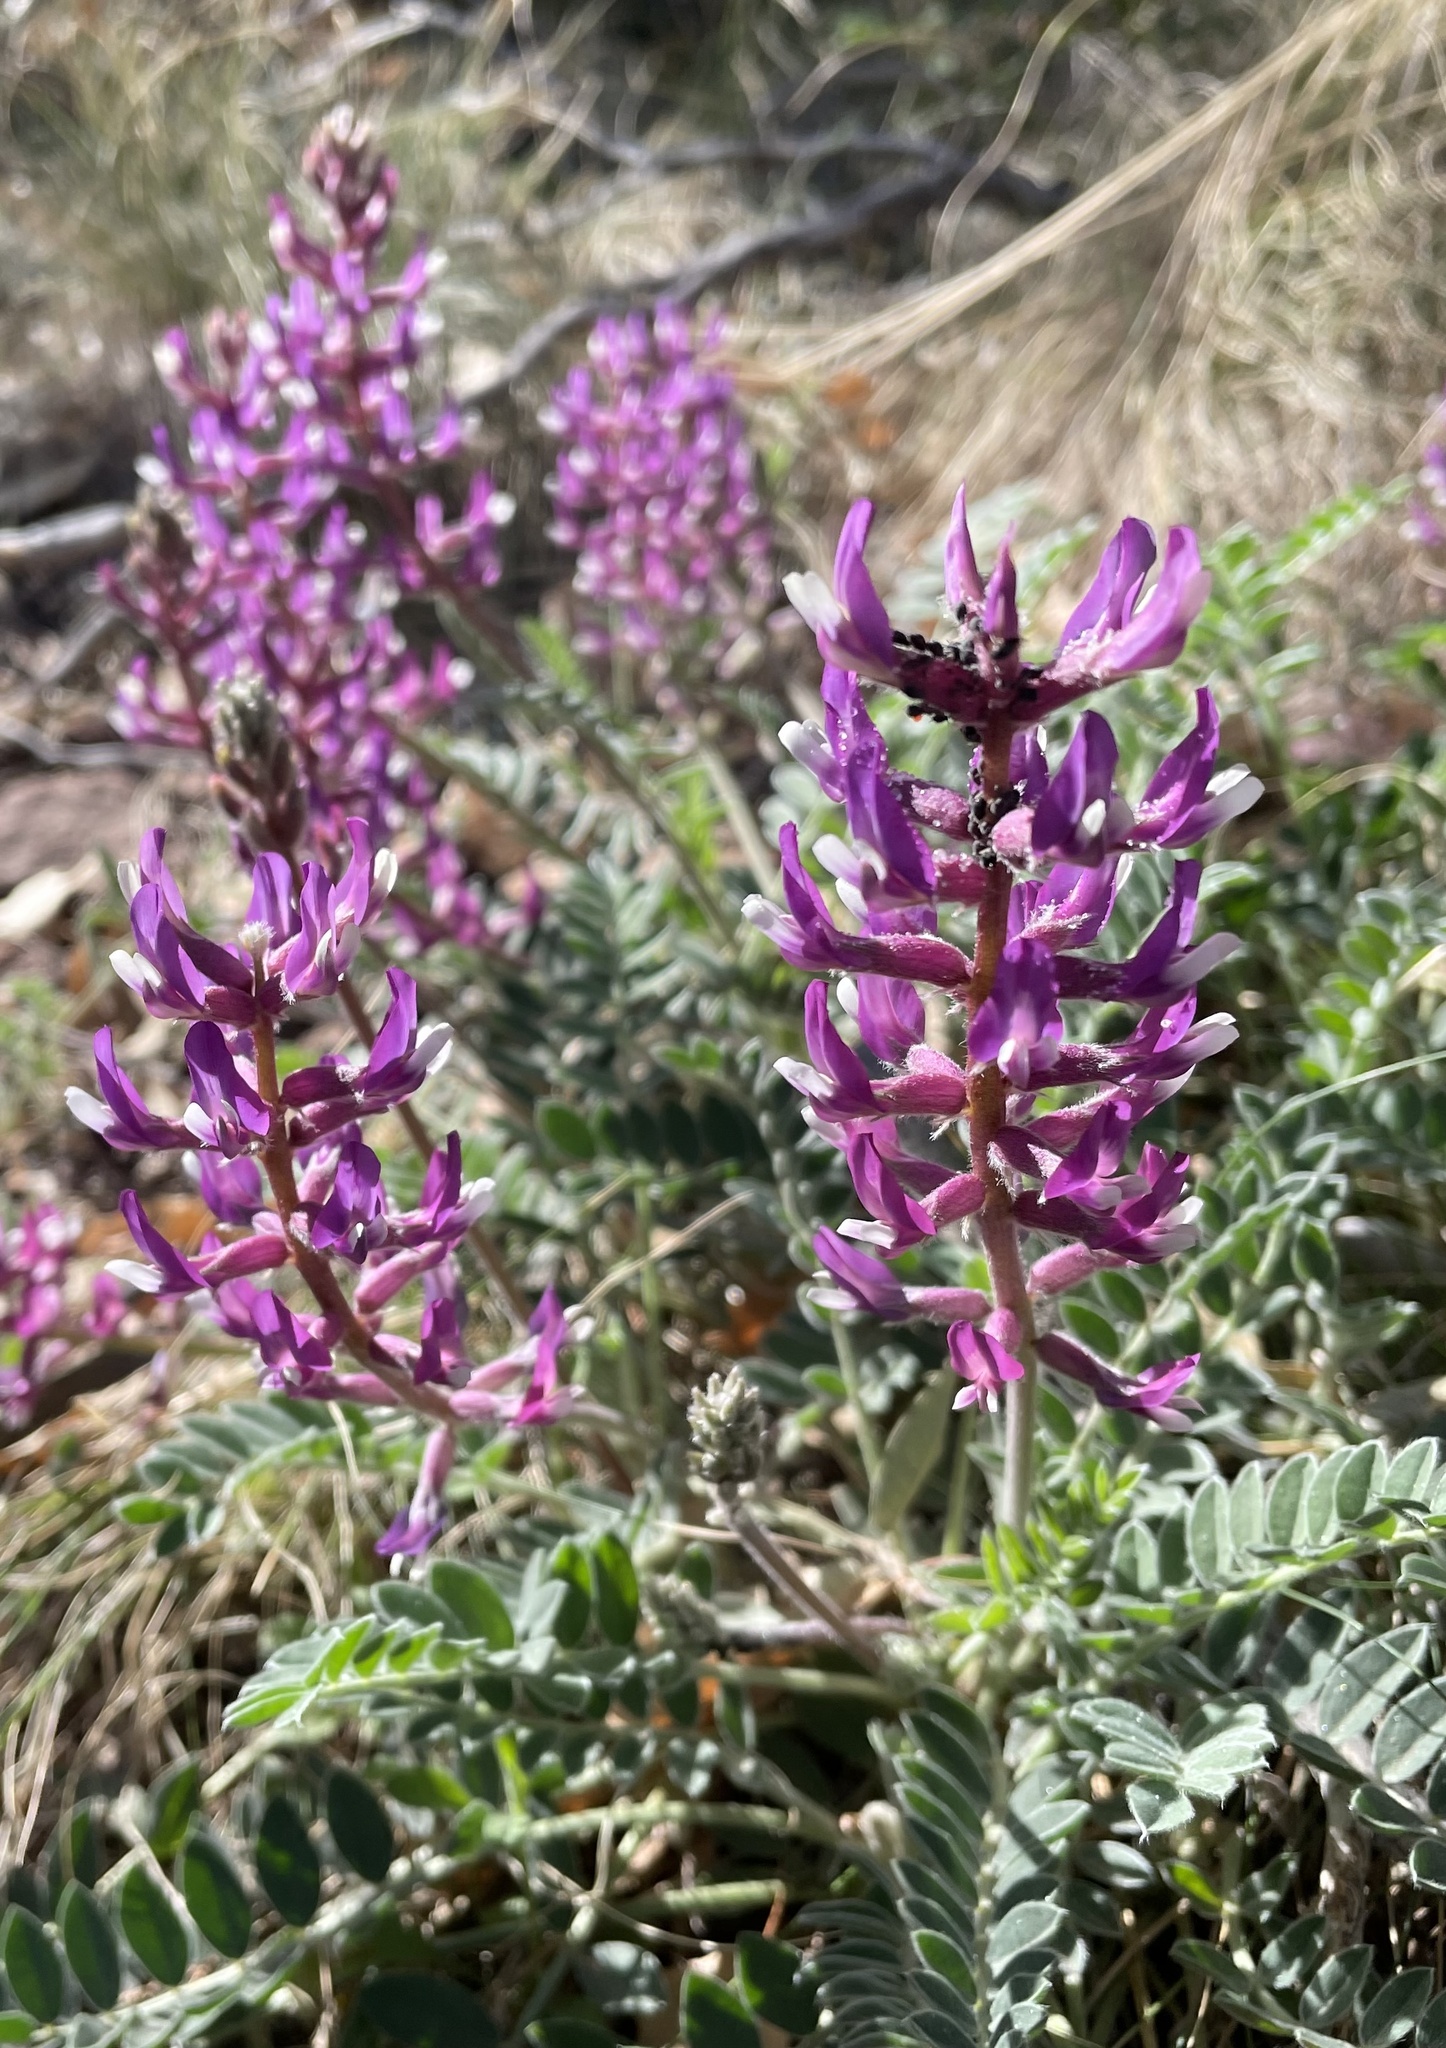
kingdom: Plantae
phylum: Tracheophyta
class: Magnoliopsida
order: Fabales
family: Fabaceae
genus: Astragalus
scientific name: Astragalus mollissimus
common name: Woolly locoweed
